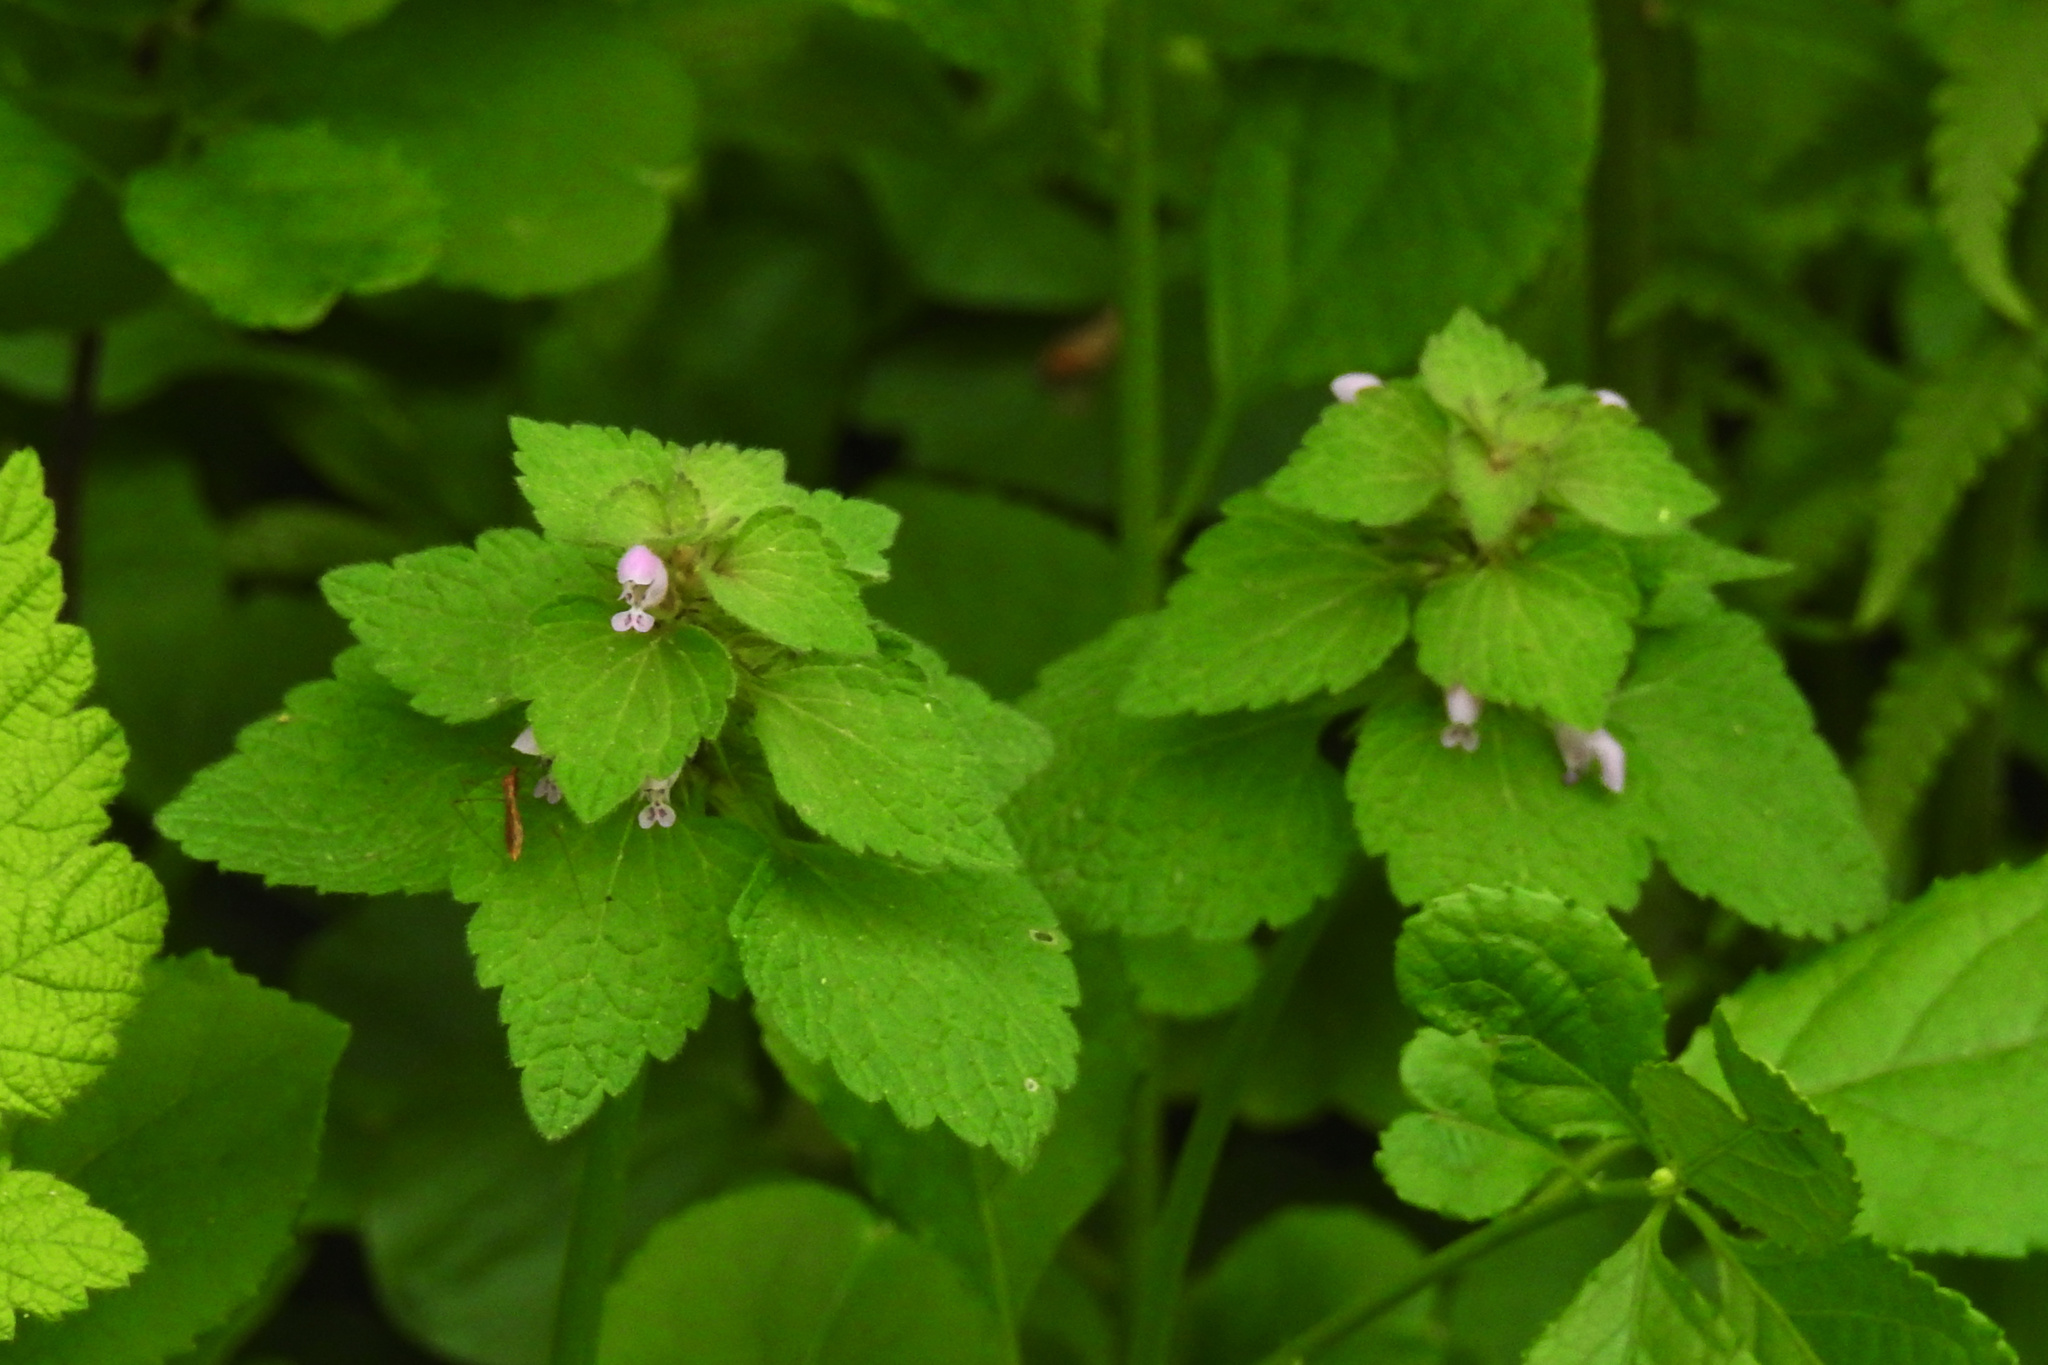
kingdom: Plantae
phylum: Tracheophyta
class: Magnoliopsida
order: Lamiales
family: Lamiaceae
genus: Lamium
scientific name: Lamium purpureum
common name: Red dead-nettle
